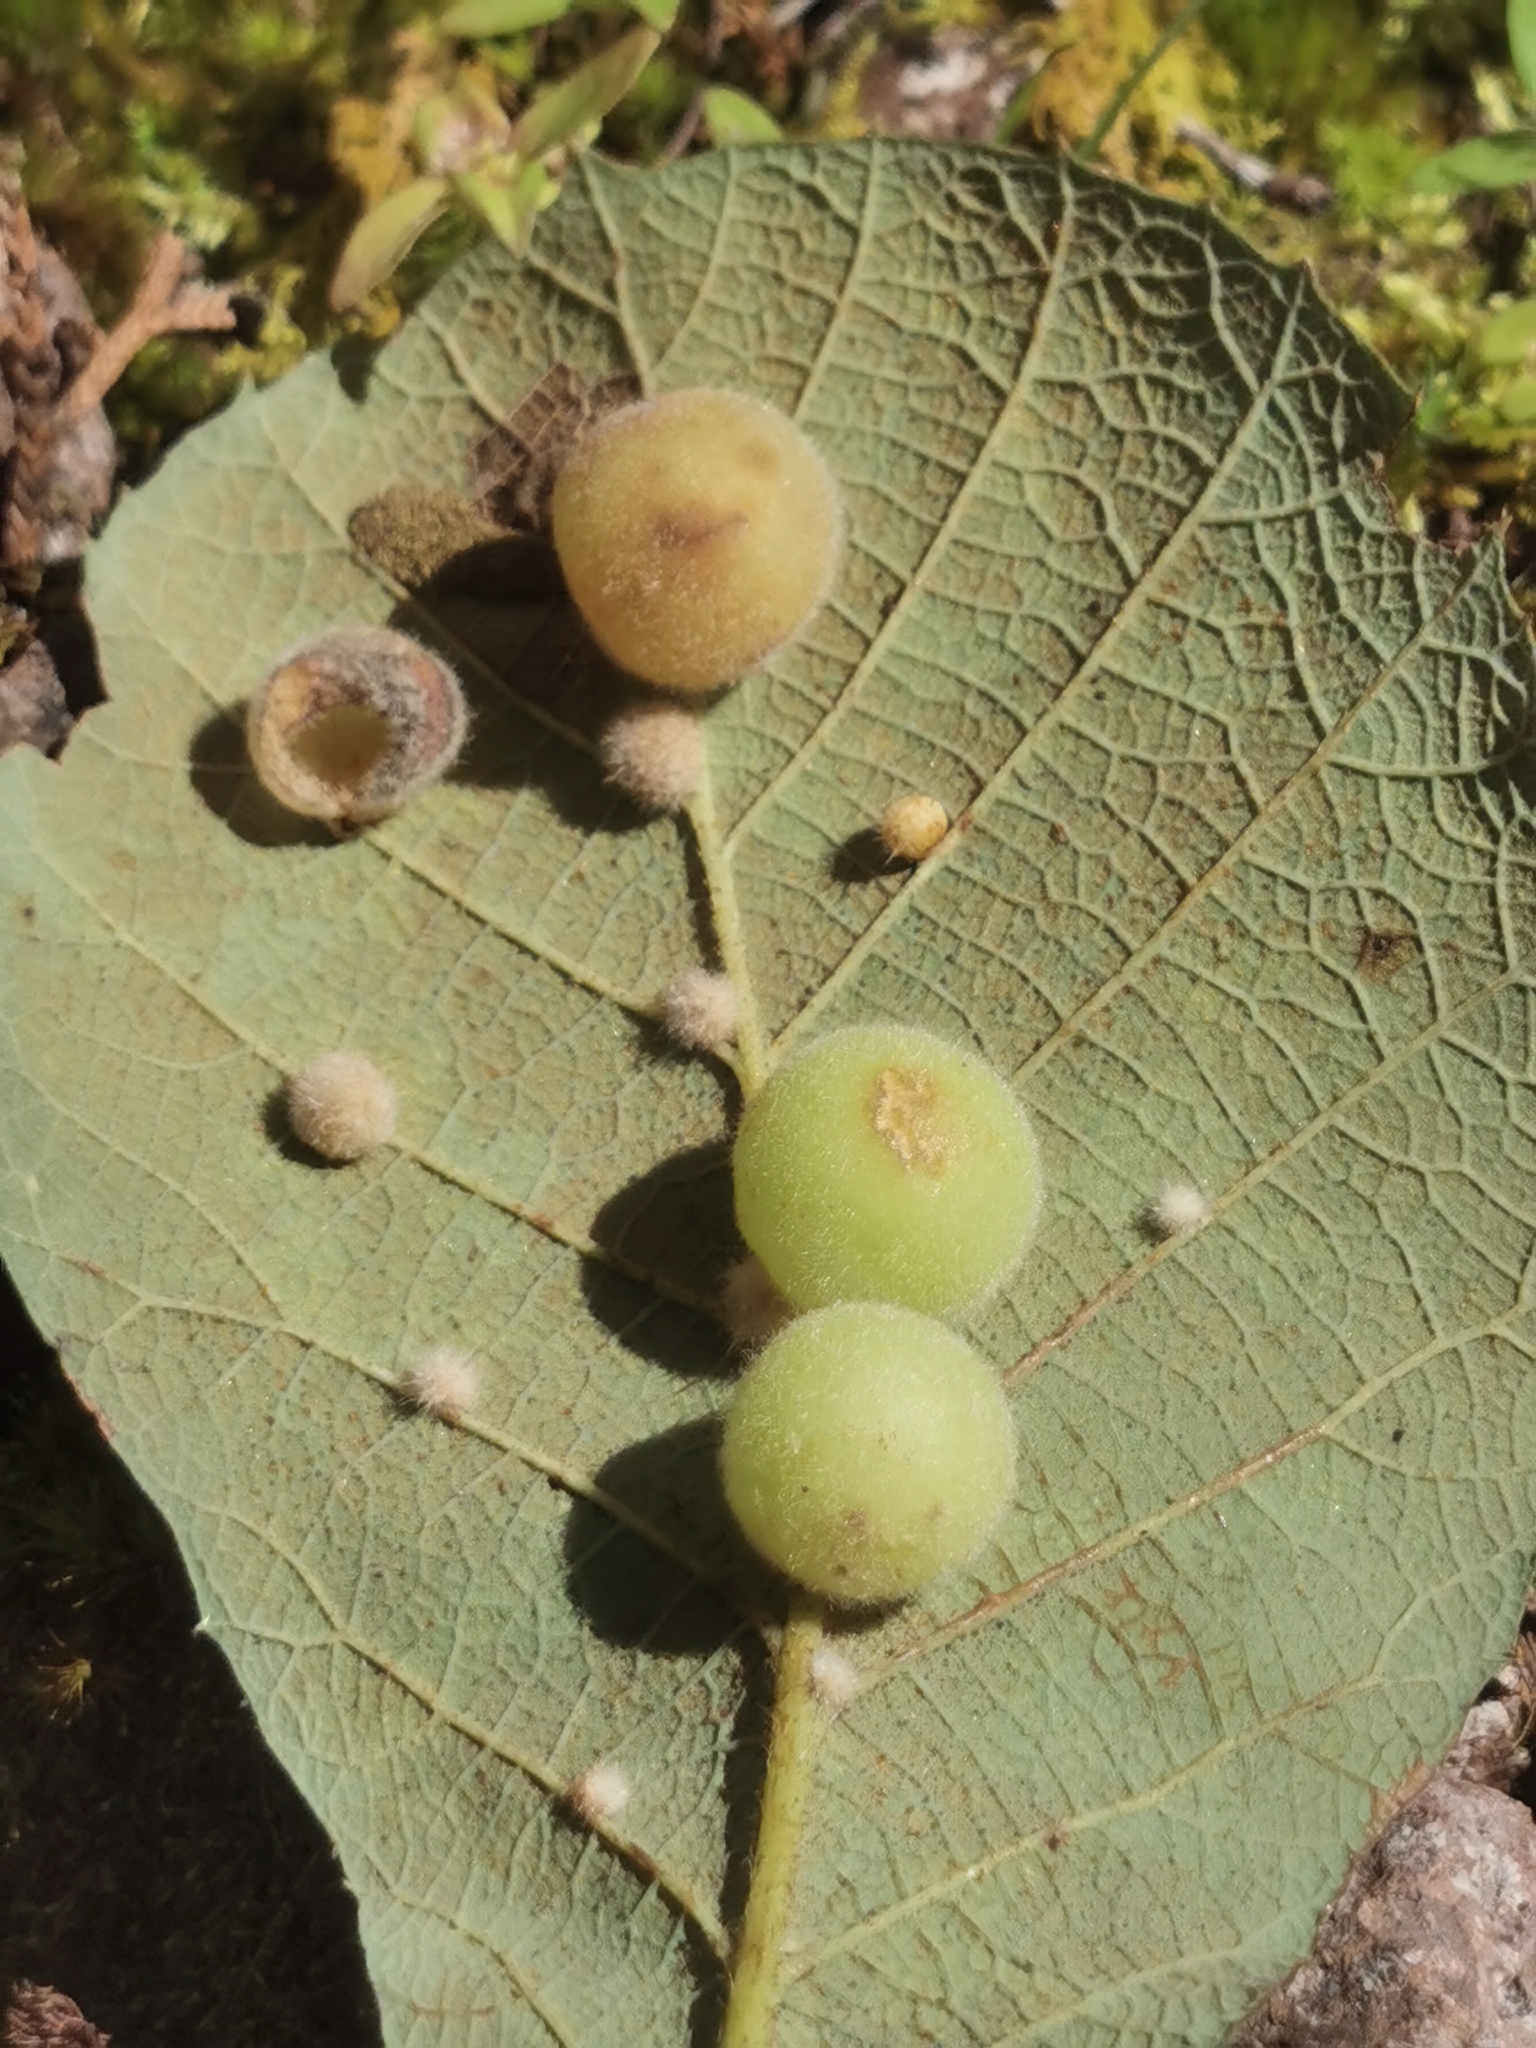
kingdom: Plantae
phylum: Tracheophyta
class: Magnoliopsida
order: Fagales
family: Fagaceae
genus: Quercus
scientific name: Quercus rugosa
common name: Netleaf oak
